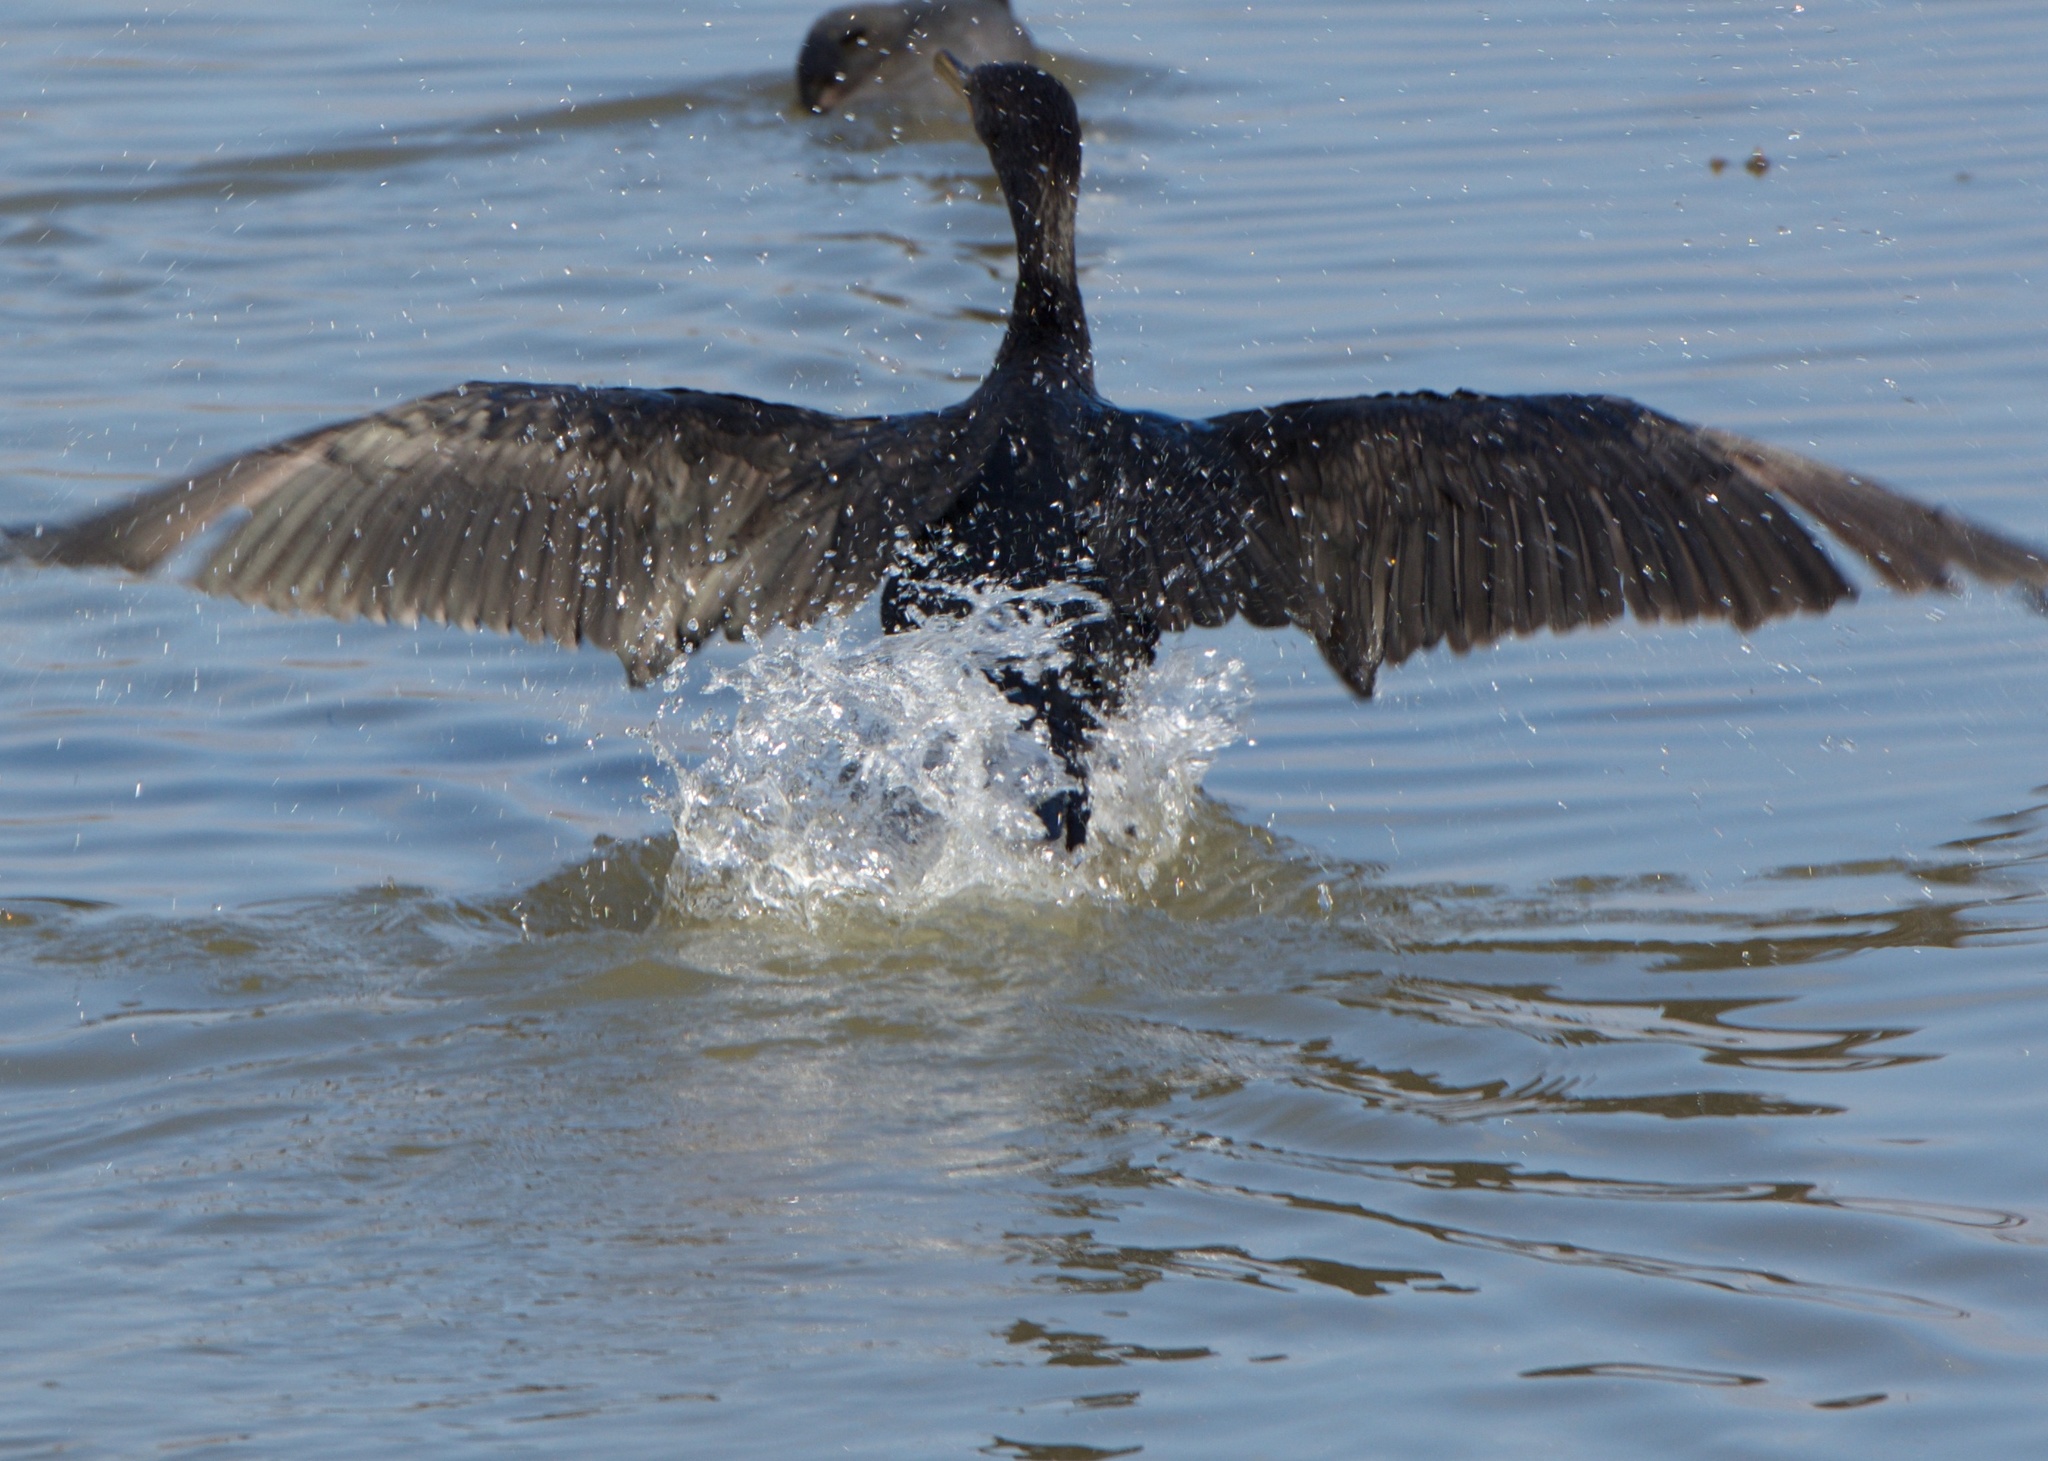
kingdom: Animalia
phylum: Chordata
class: Aves
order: Suliformes
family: Phalacrocoracidae
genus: Phalacrocorax
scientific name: Phalacrocorax auritus
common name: Double-crested cormorant
